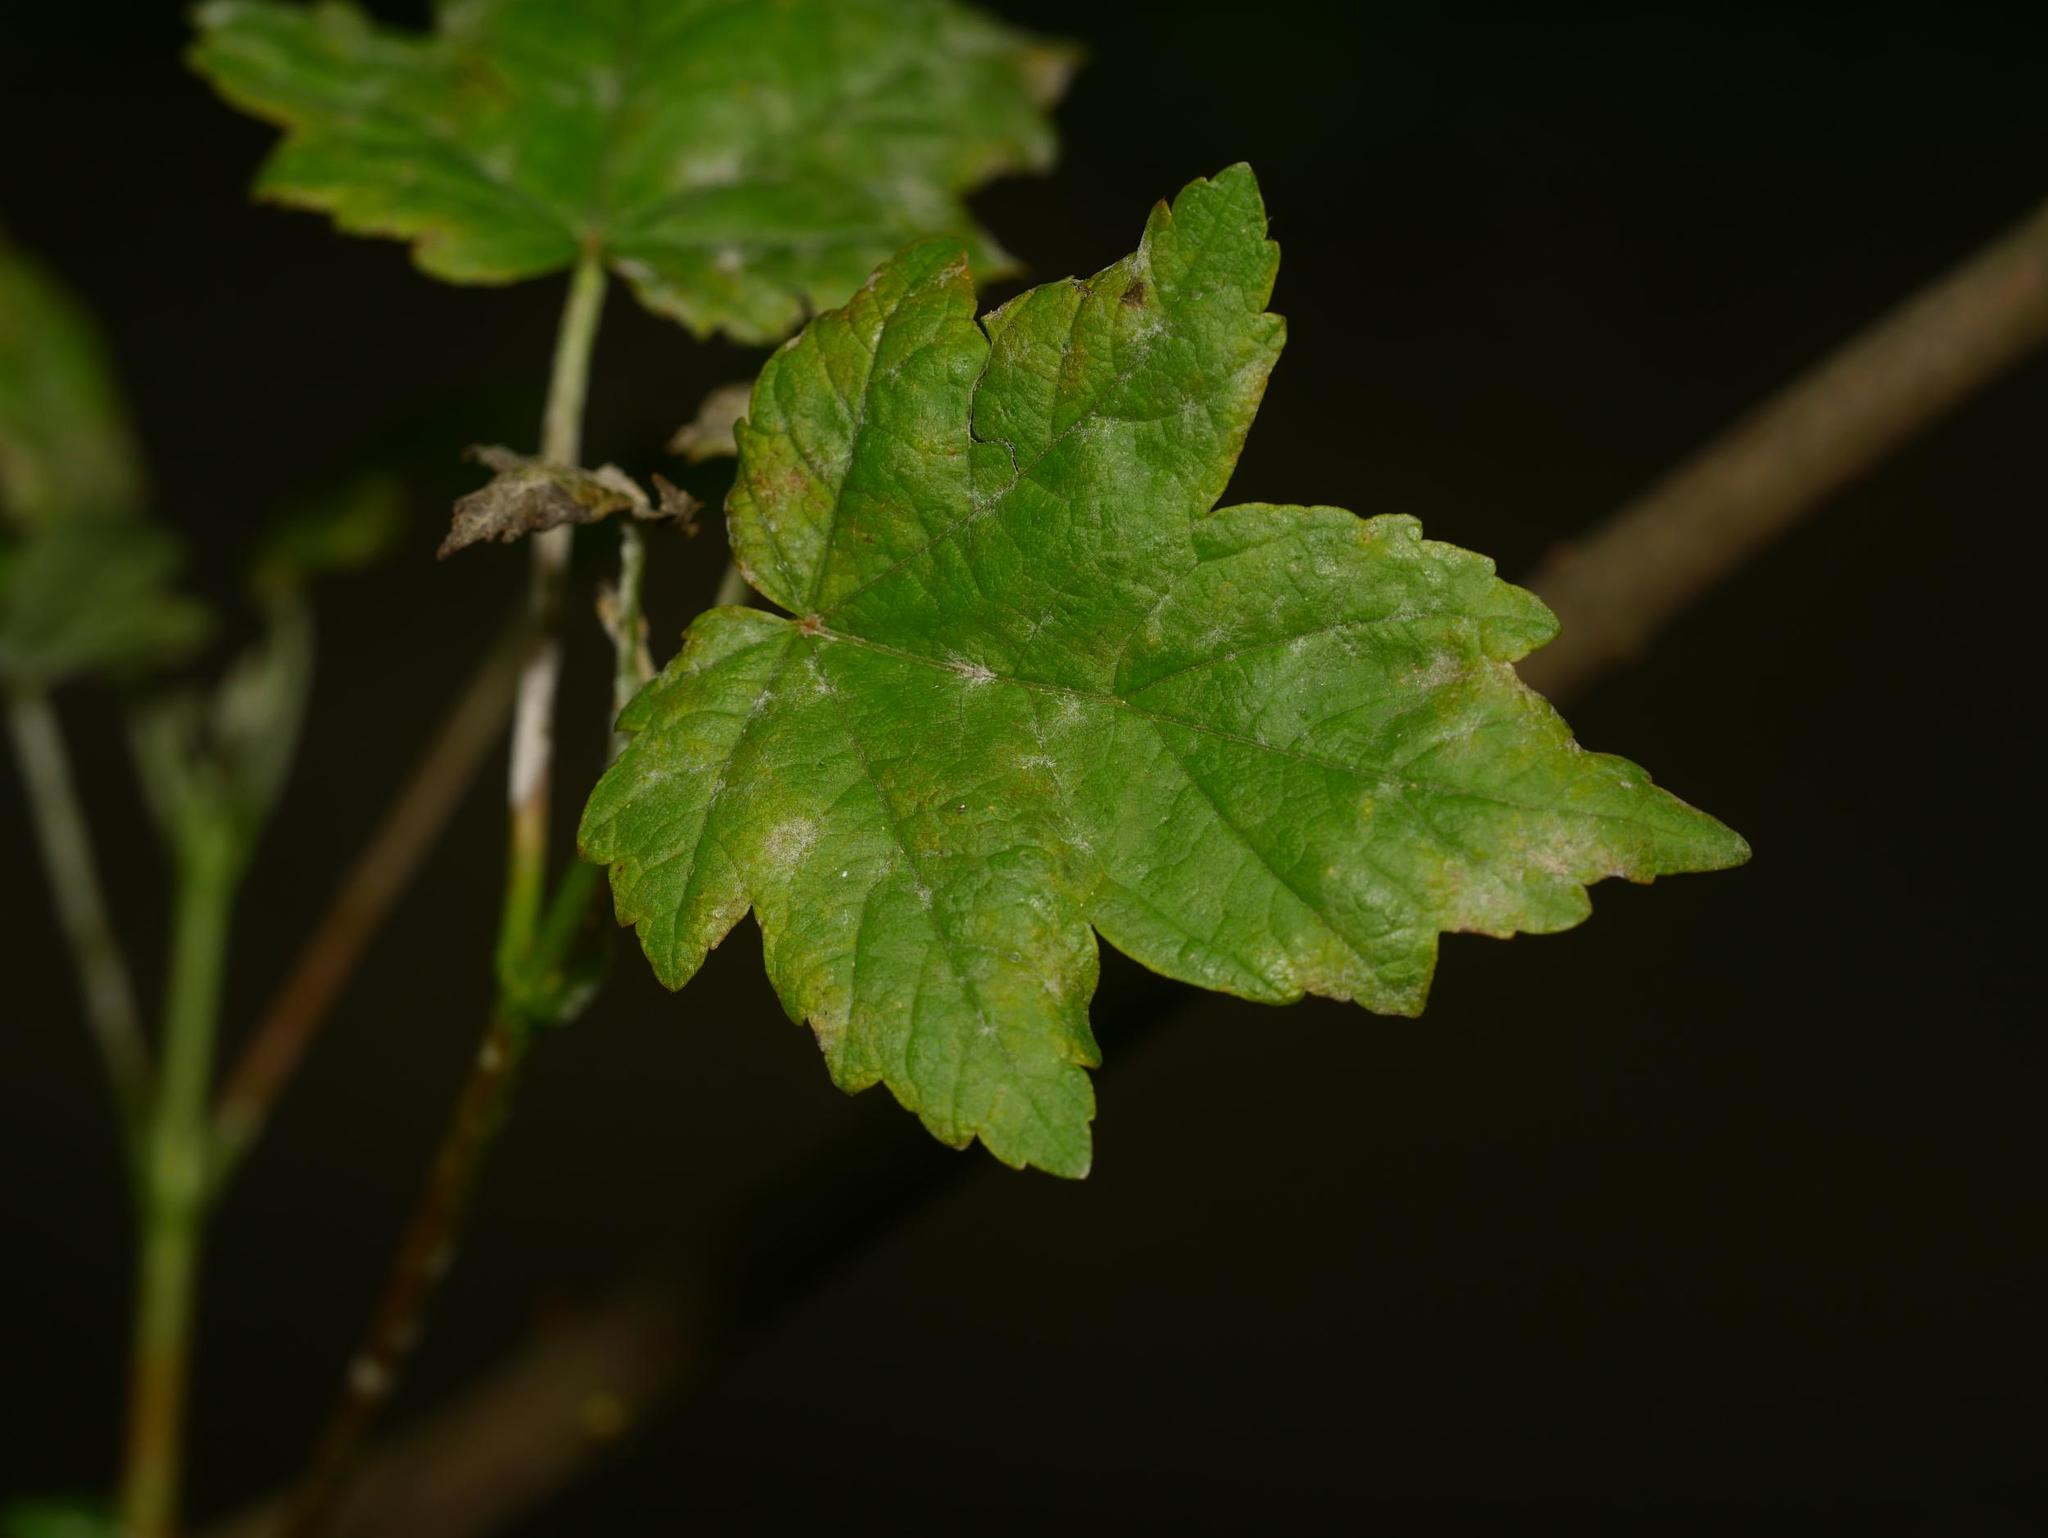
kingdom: Plantae
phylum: Tracheophyta
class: Magnoliopsida
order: Sapindales
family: Sapindaceae
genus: Acer
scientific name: Acer pseudoplatanus
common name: Sycamore
